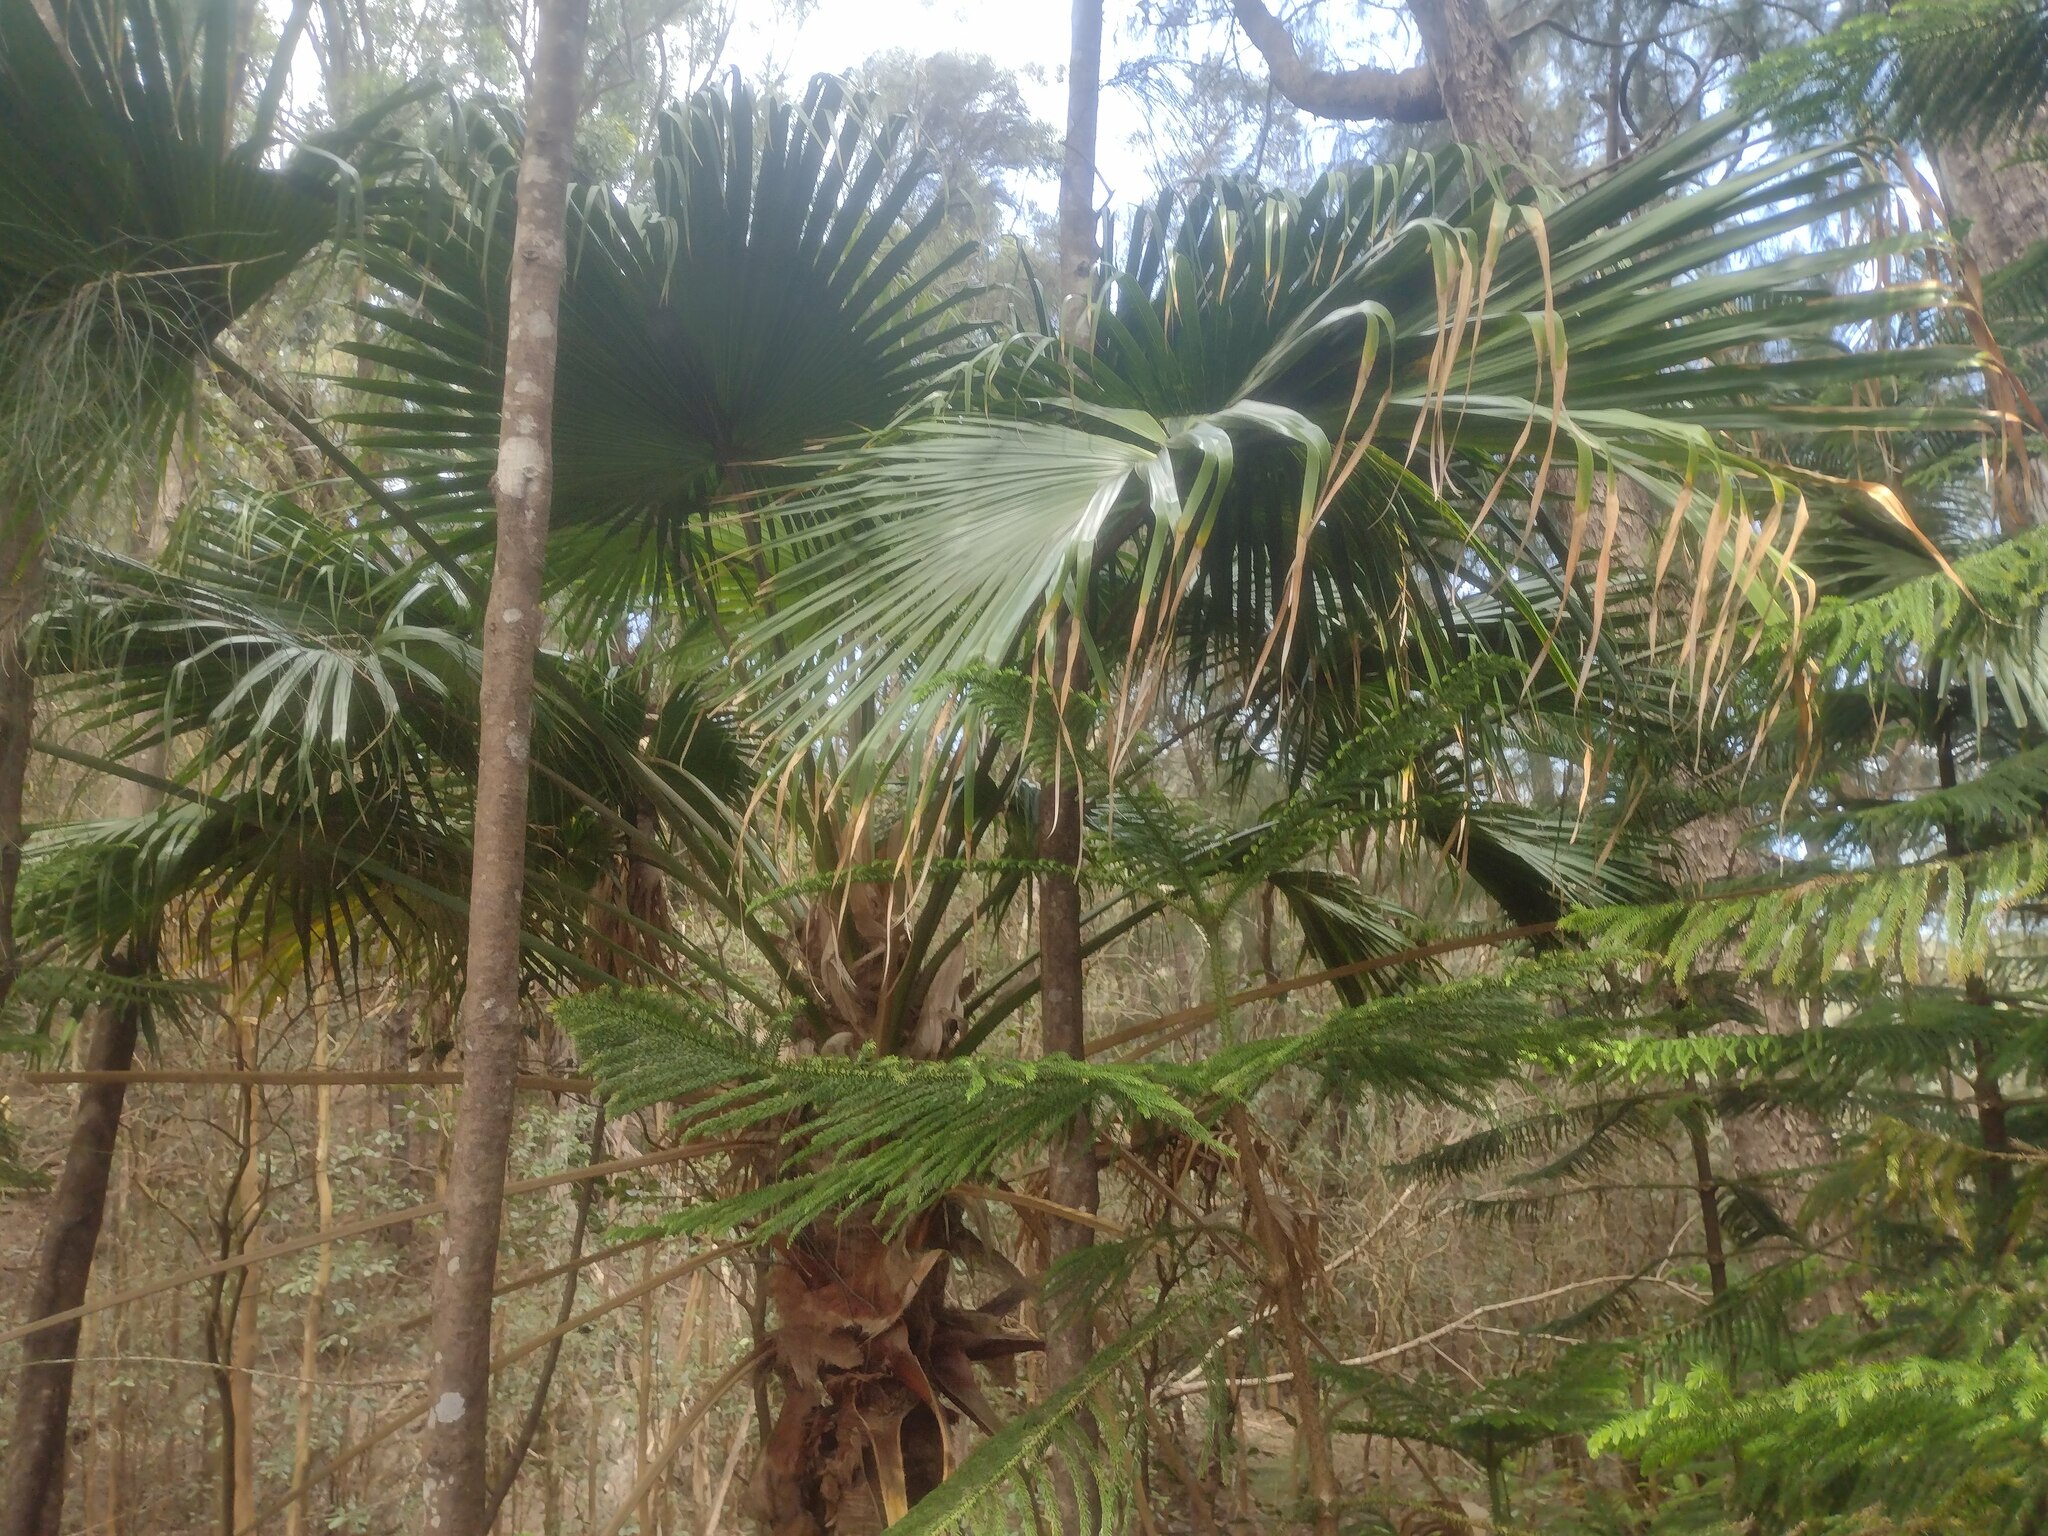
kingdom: Plantae
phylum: Tracheophyta
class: Liliopsida
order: Arecales
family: Arecaceae
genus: Livistona
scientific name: Livistona chinensis
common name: Fountain palm
